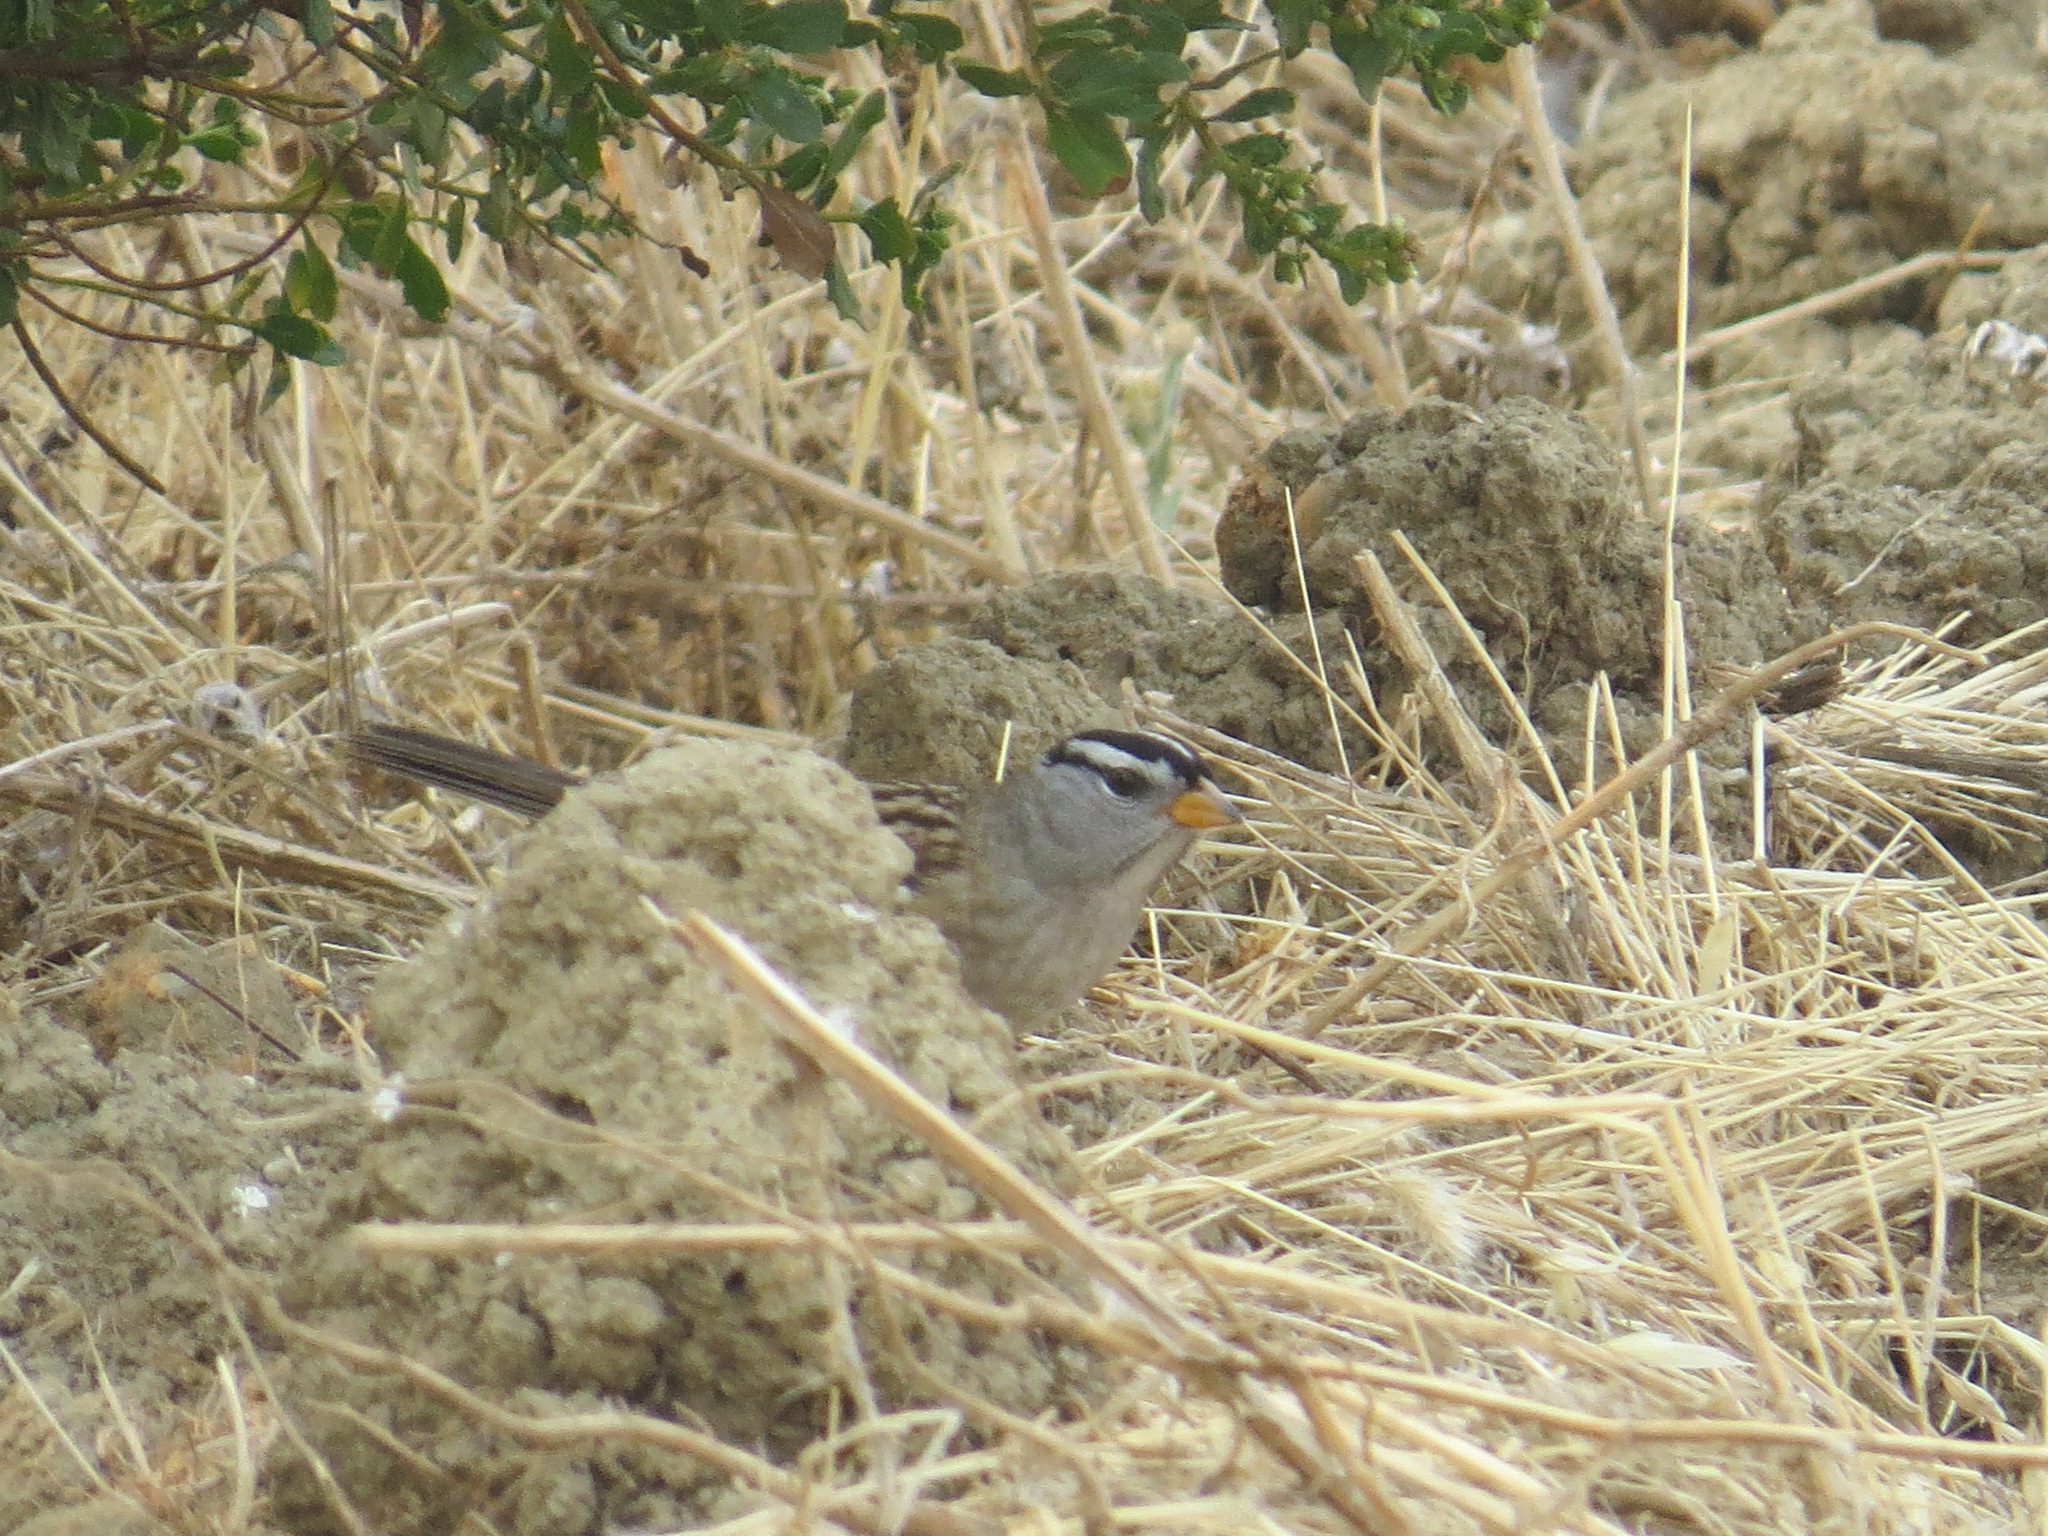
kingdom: Animalia
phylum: Chordata
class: Aves
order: Passeriformes
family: Passerellidae
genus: Zonotrichia
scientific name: Zonotrichia leucophrys
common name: White-crowned sparrow
